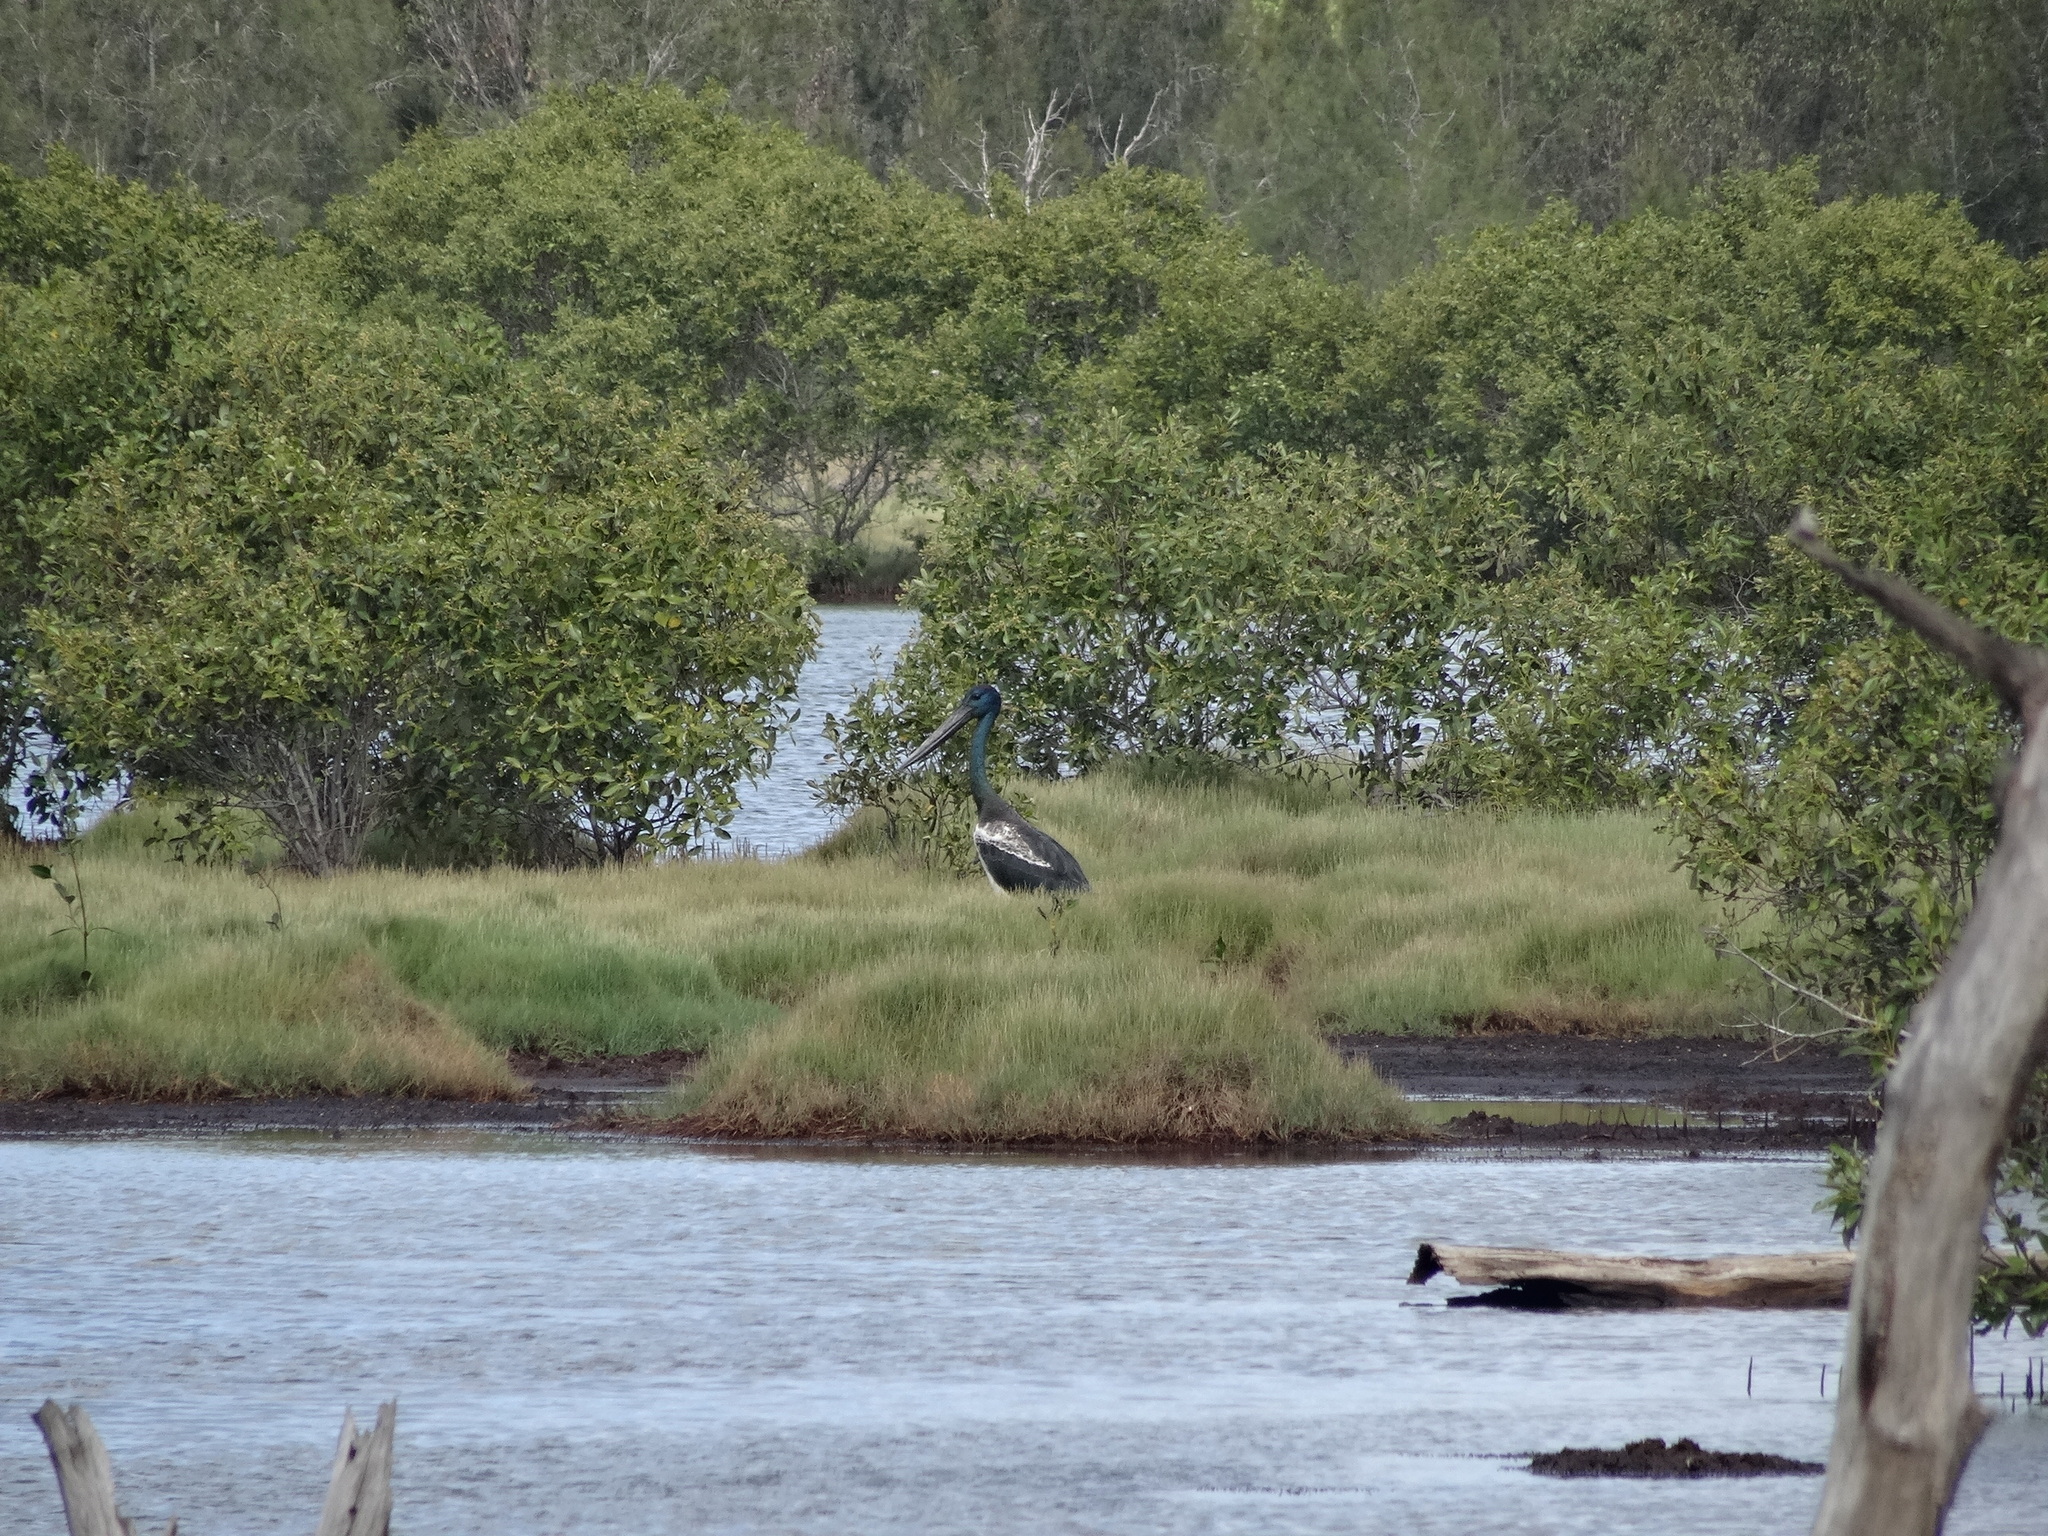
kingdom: Animalia
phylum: Chordata
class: Aves
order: Ciconiiformes
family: Ciconiidae
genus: Ephippiorhynchus
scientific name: Ephippiorhynchus asiaticus
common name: Black-necked stork
